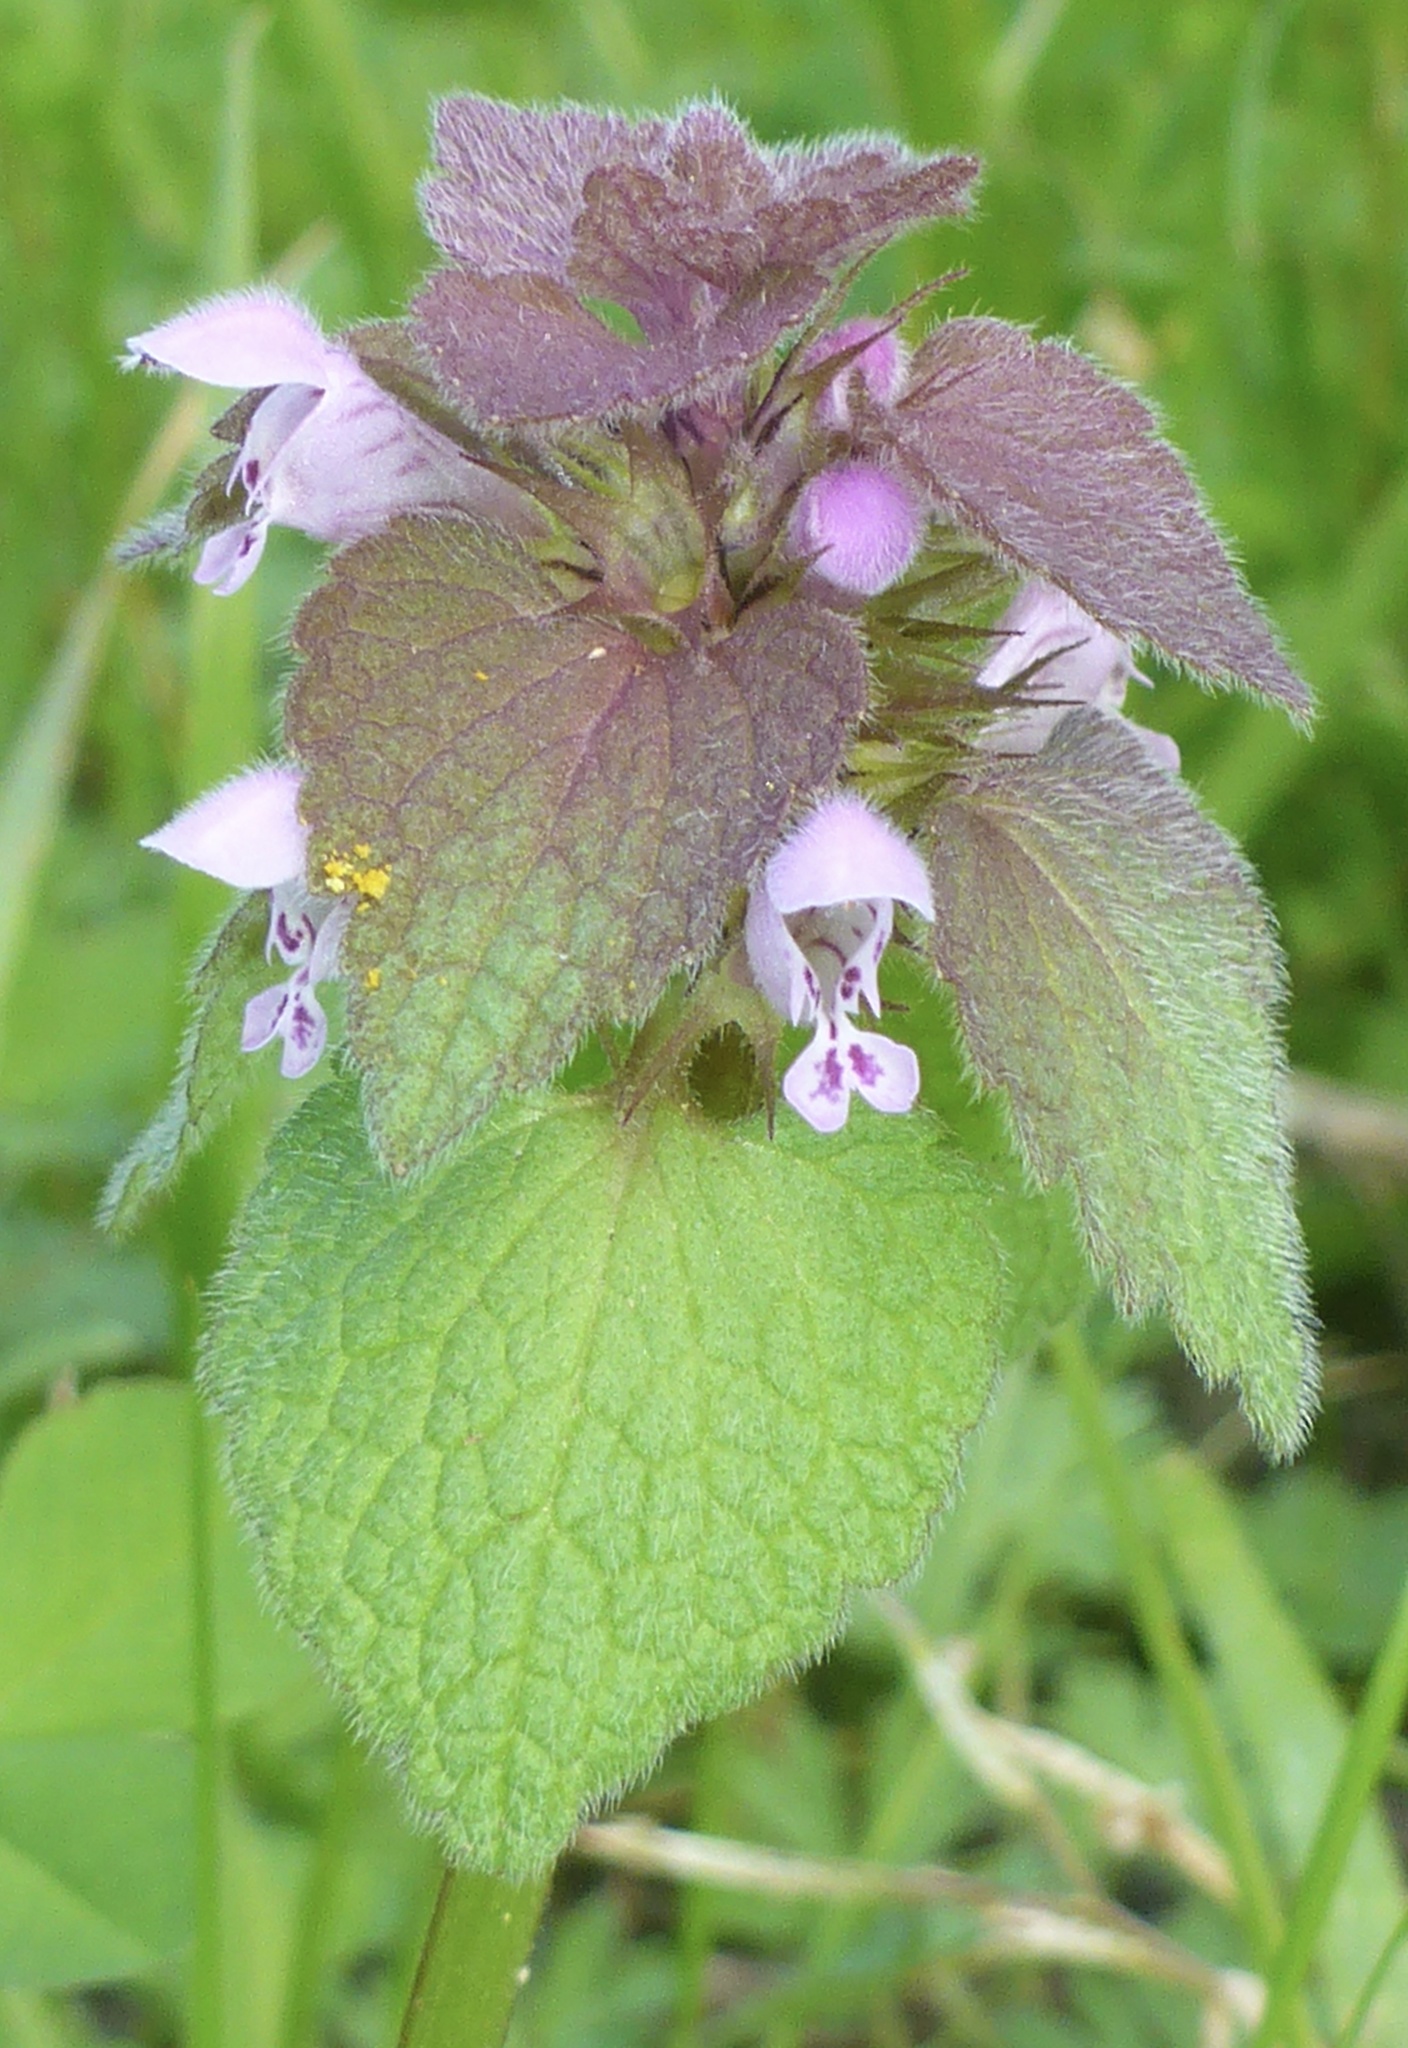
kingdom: Plantae
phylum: Tracheophyta
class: Magnoliopsida
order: Lamiales
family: Lamiaceae
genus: Lamium
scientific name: Lamium purpureum
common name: Red dead-nettle
